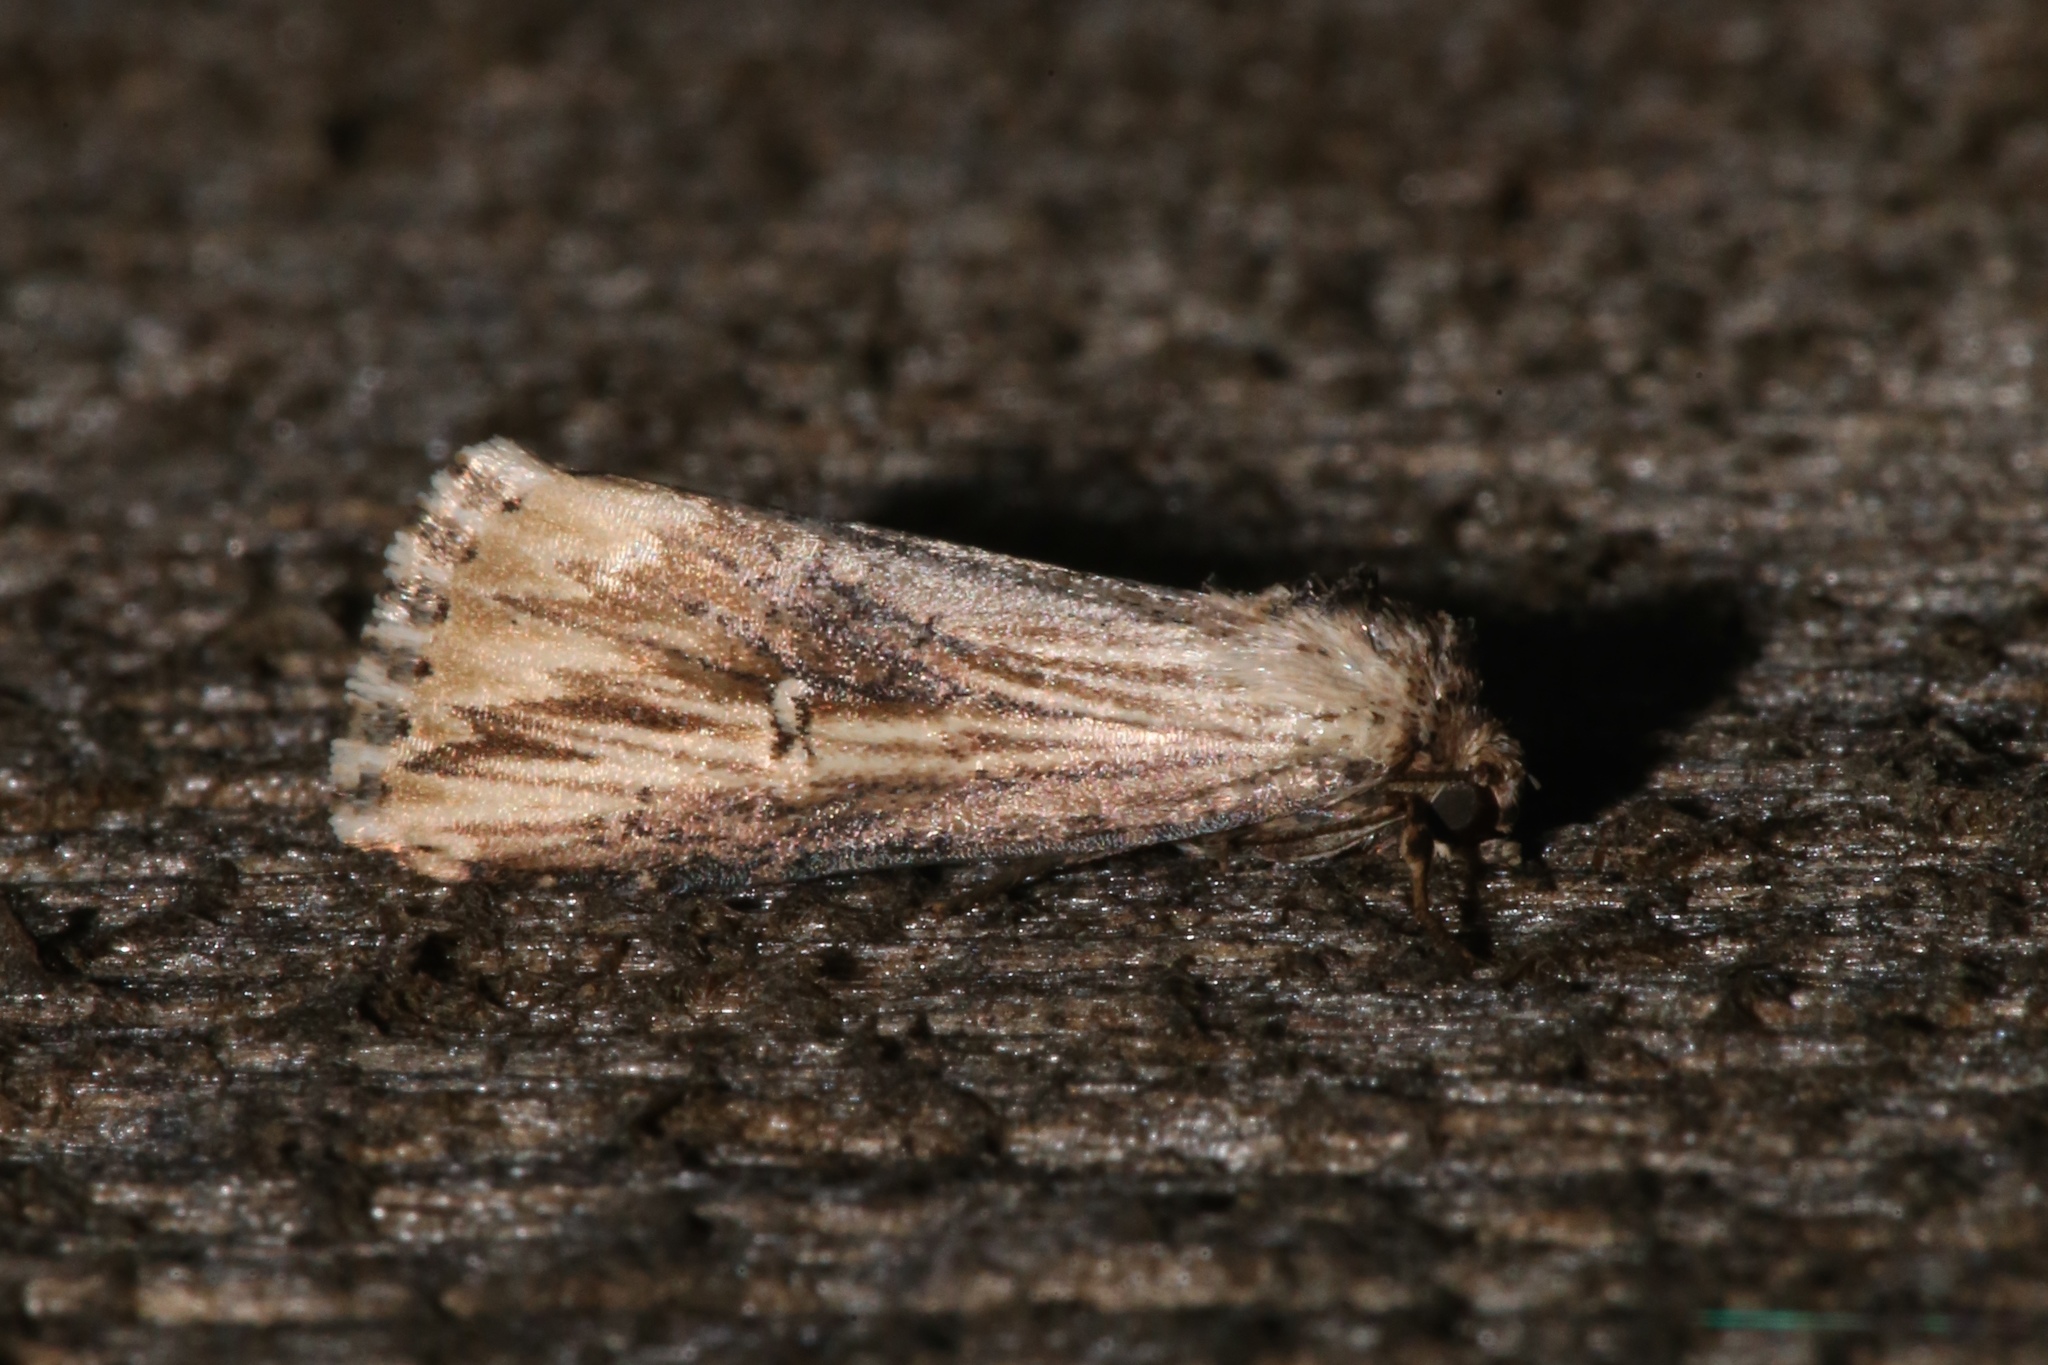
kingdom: Animalia
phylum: Arthropoda
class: Insecta
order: Lepidoptera
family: Noctuidae
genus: Crambodes
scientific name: Crambodes talidiformis
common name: Verbena moth
